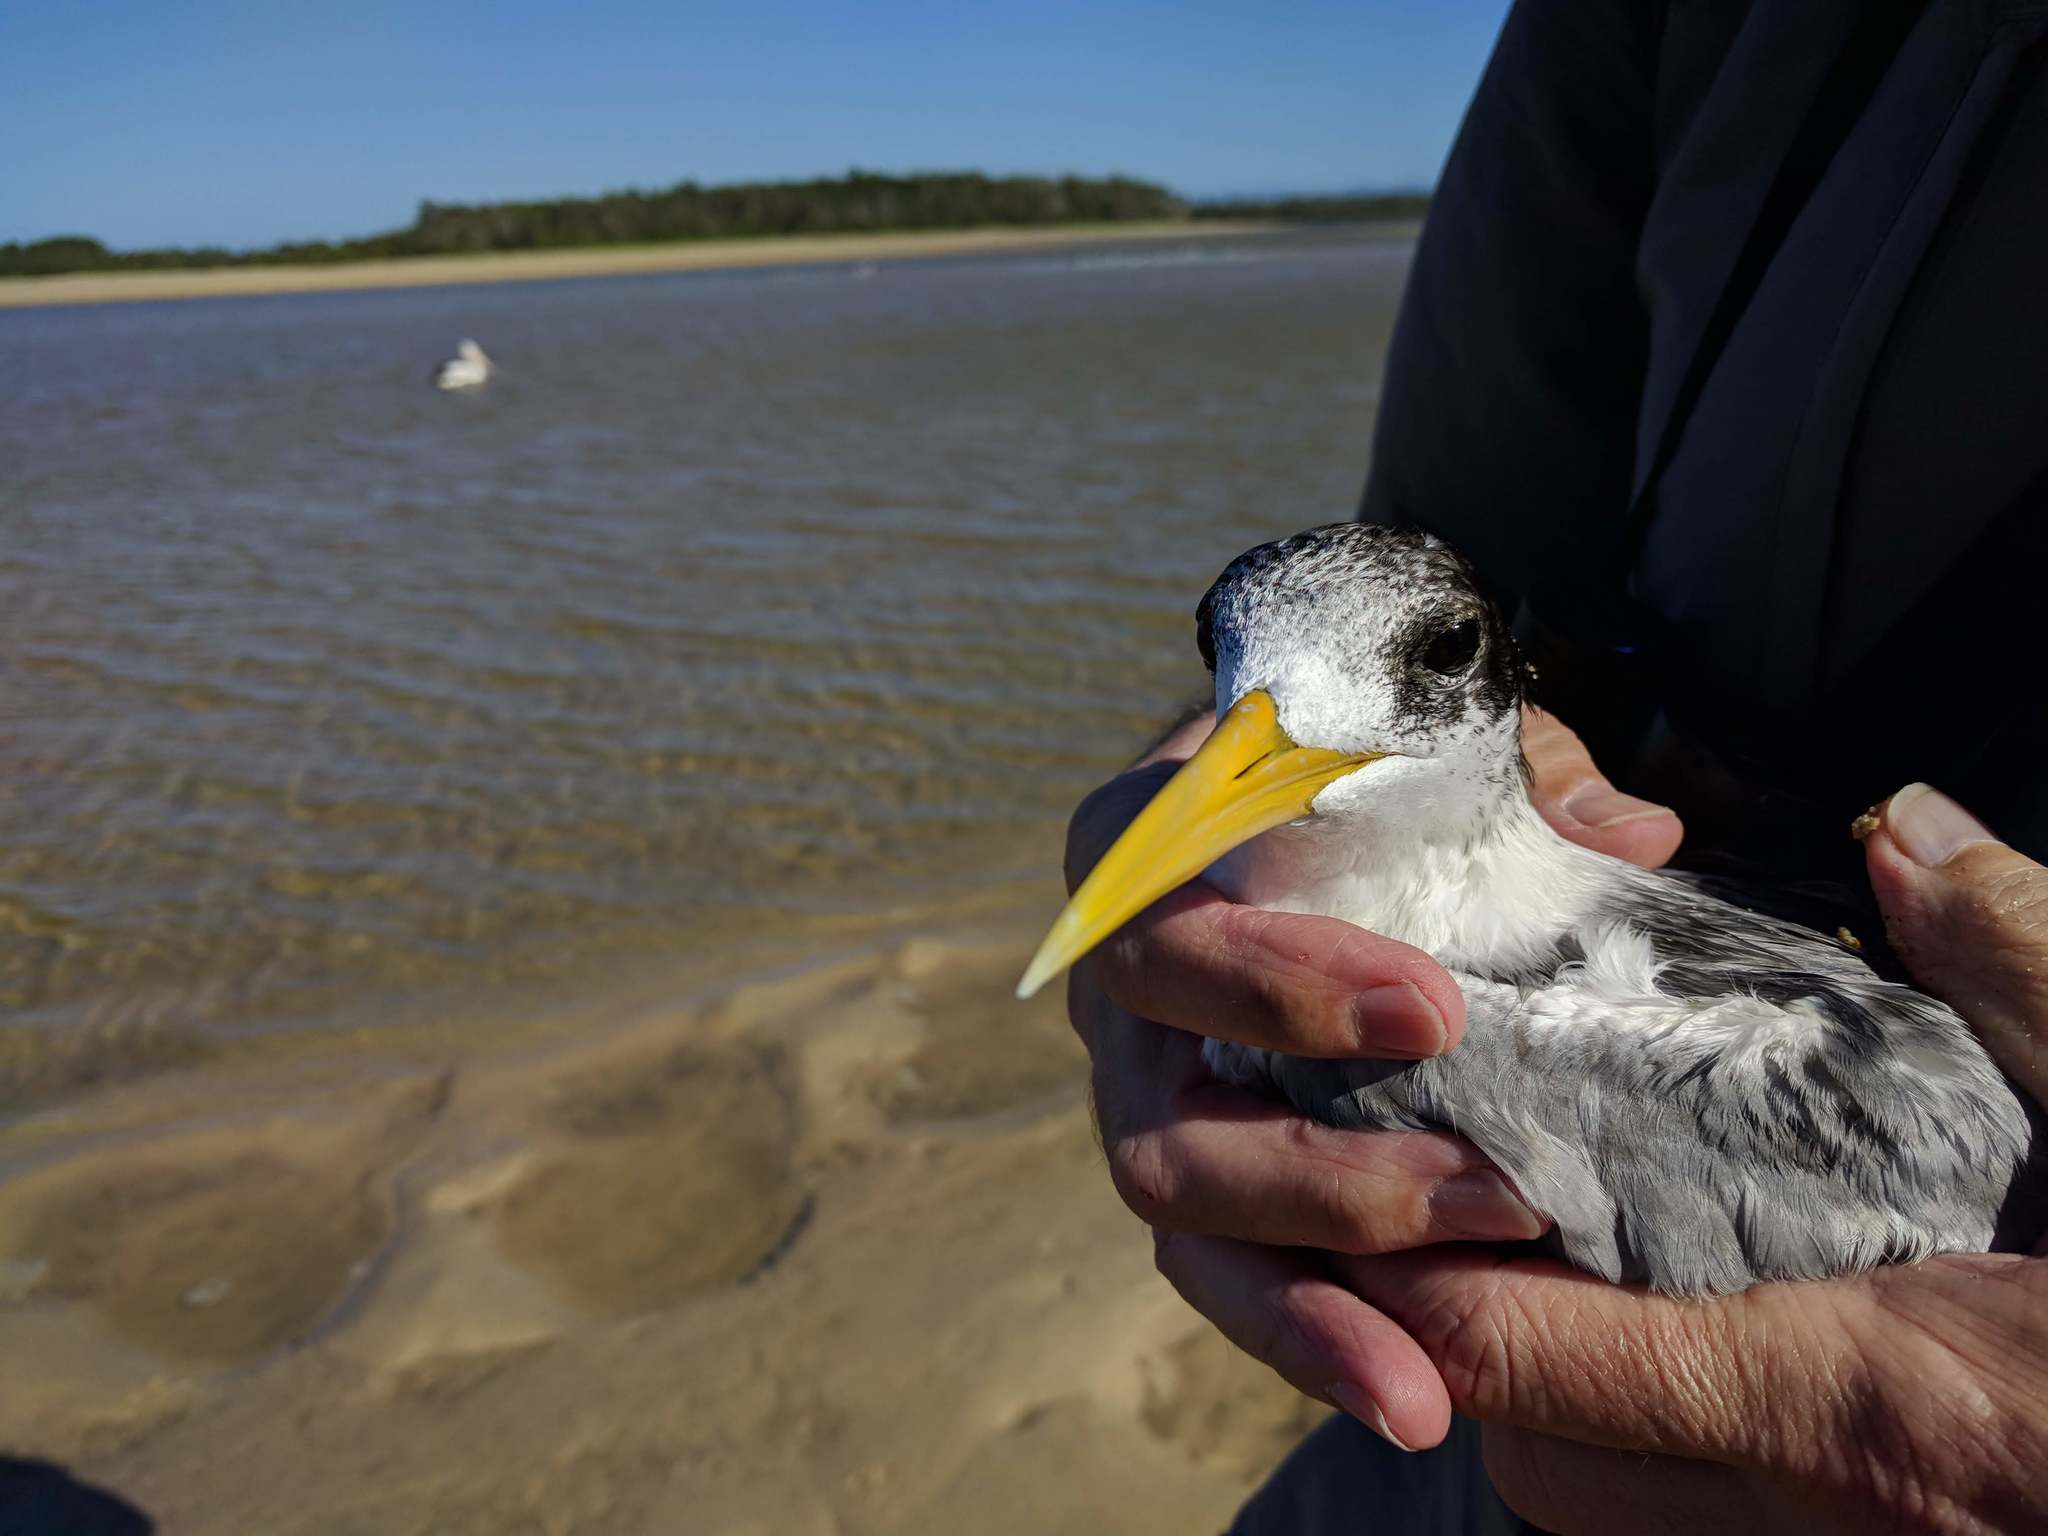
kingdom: Animalia
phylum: Chordata
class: Aves
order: Charadriiformes
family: Laridae
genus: Thalasseus
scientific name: Thalasseus bergii
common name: Greater crested tern
